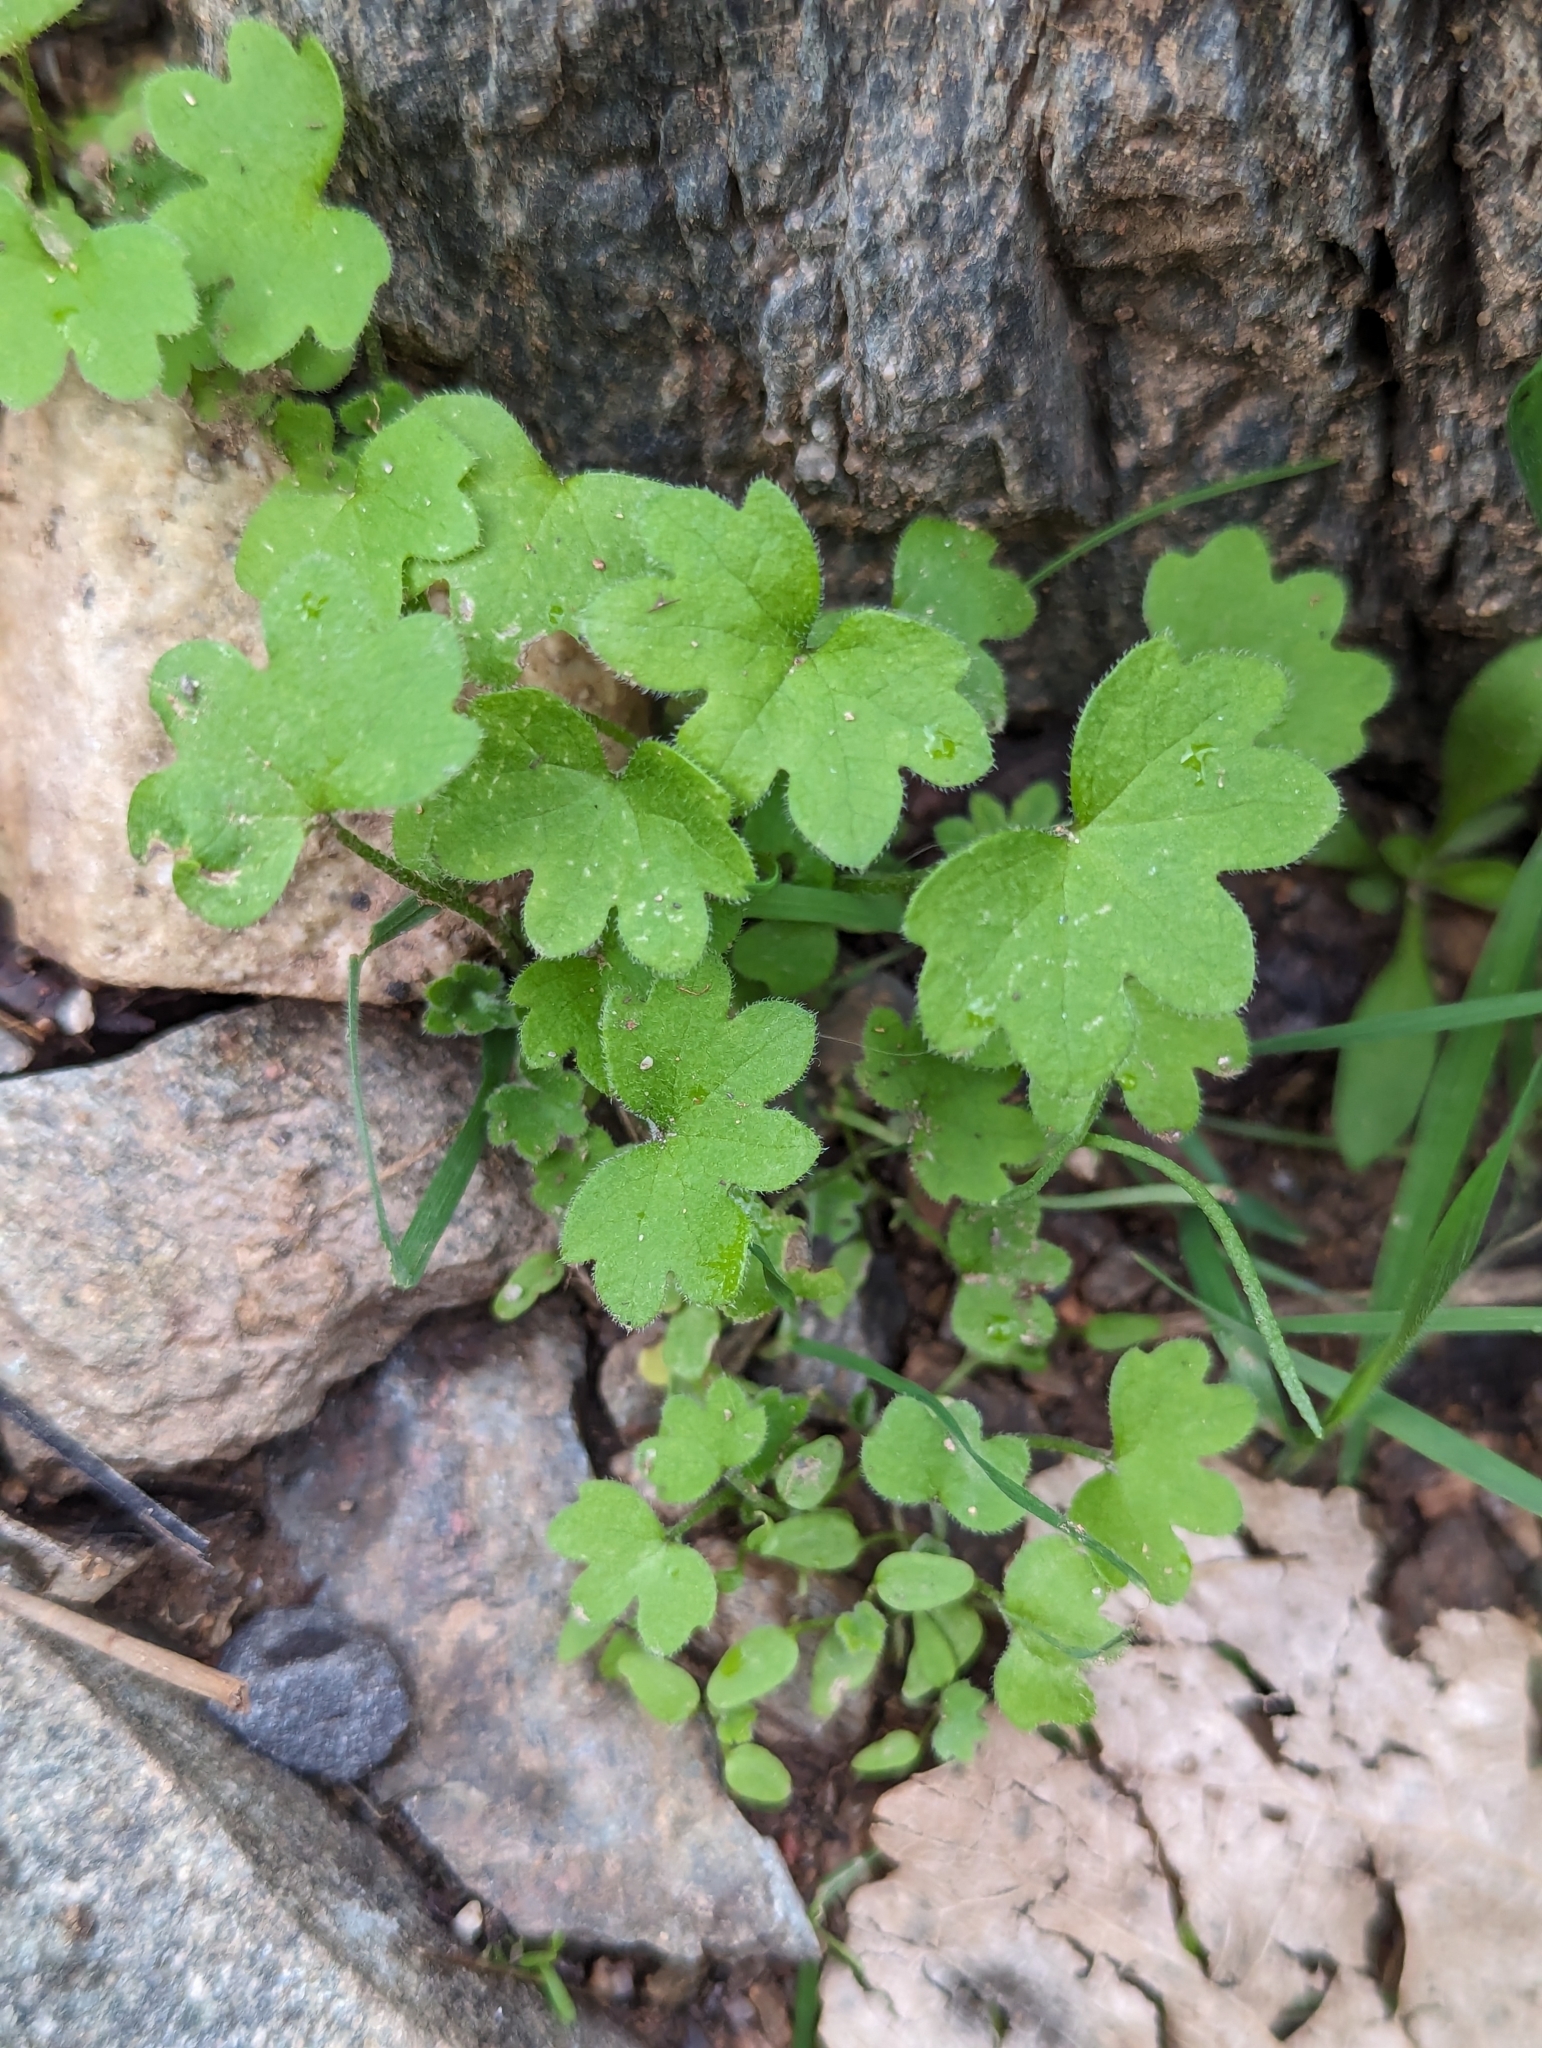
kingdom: Plantae
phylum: Tracheophyta
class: Magnoliopsida
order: Apiales
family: Apiaceae
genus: Bowlesia
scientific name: Bowlesia incana
